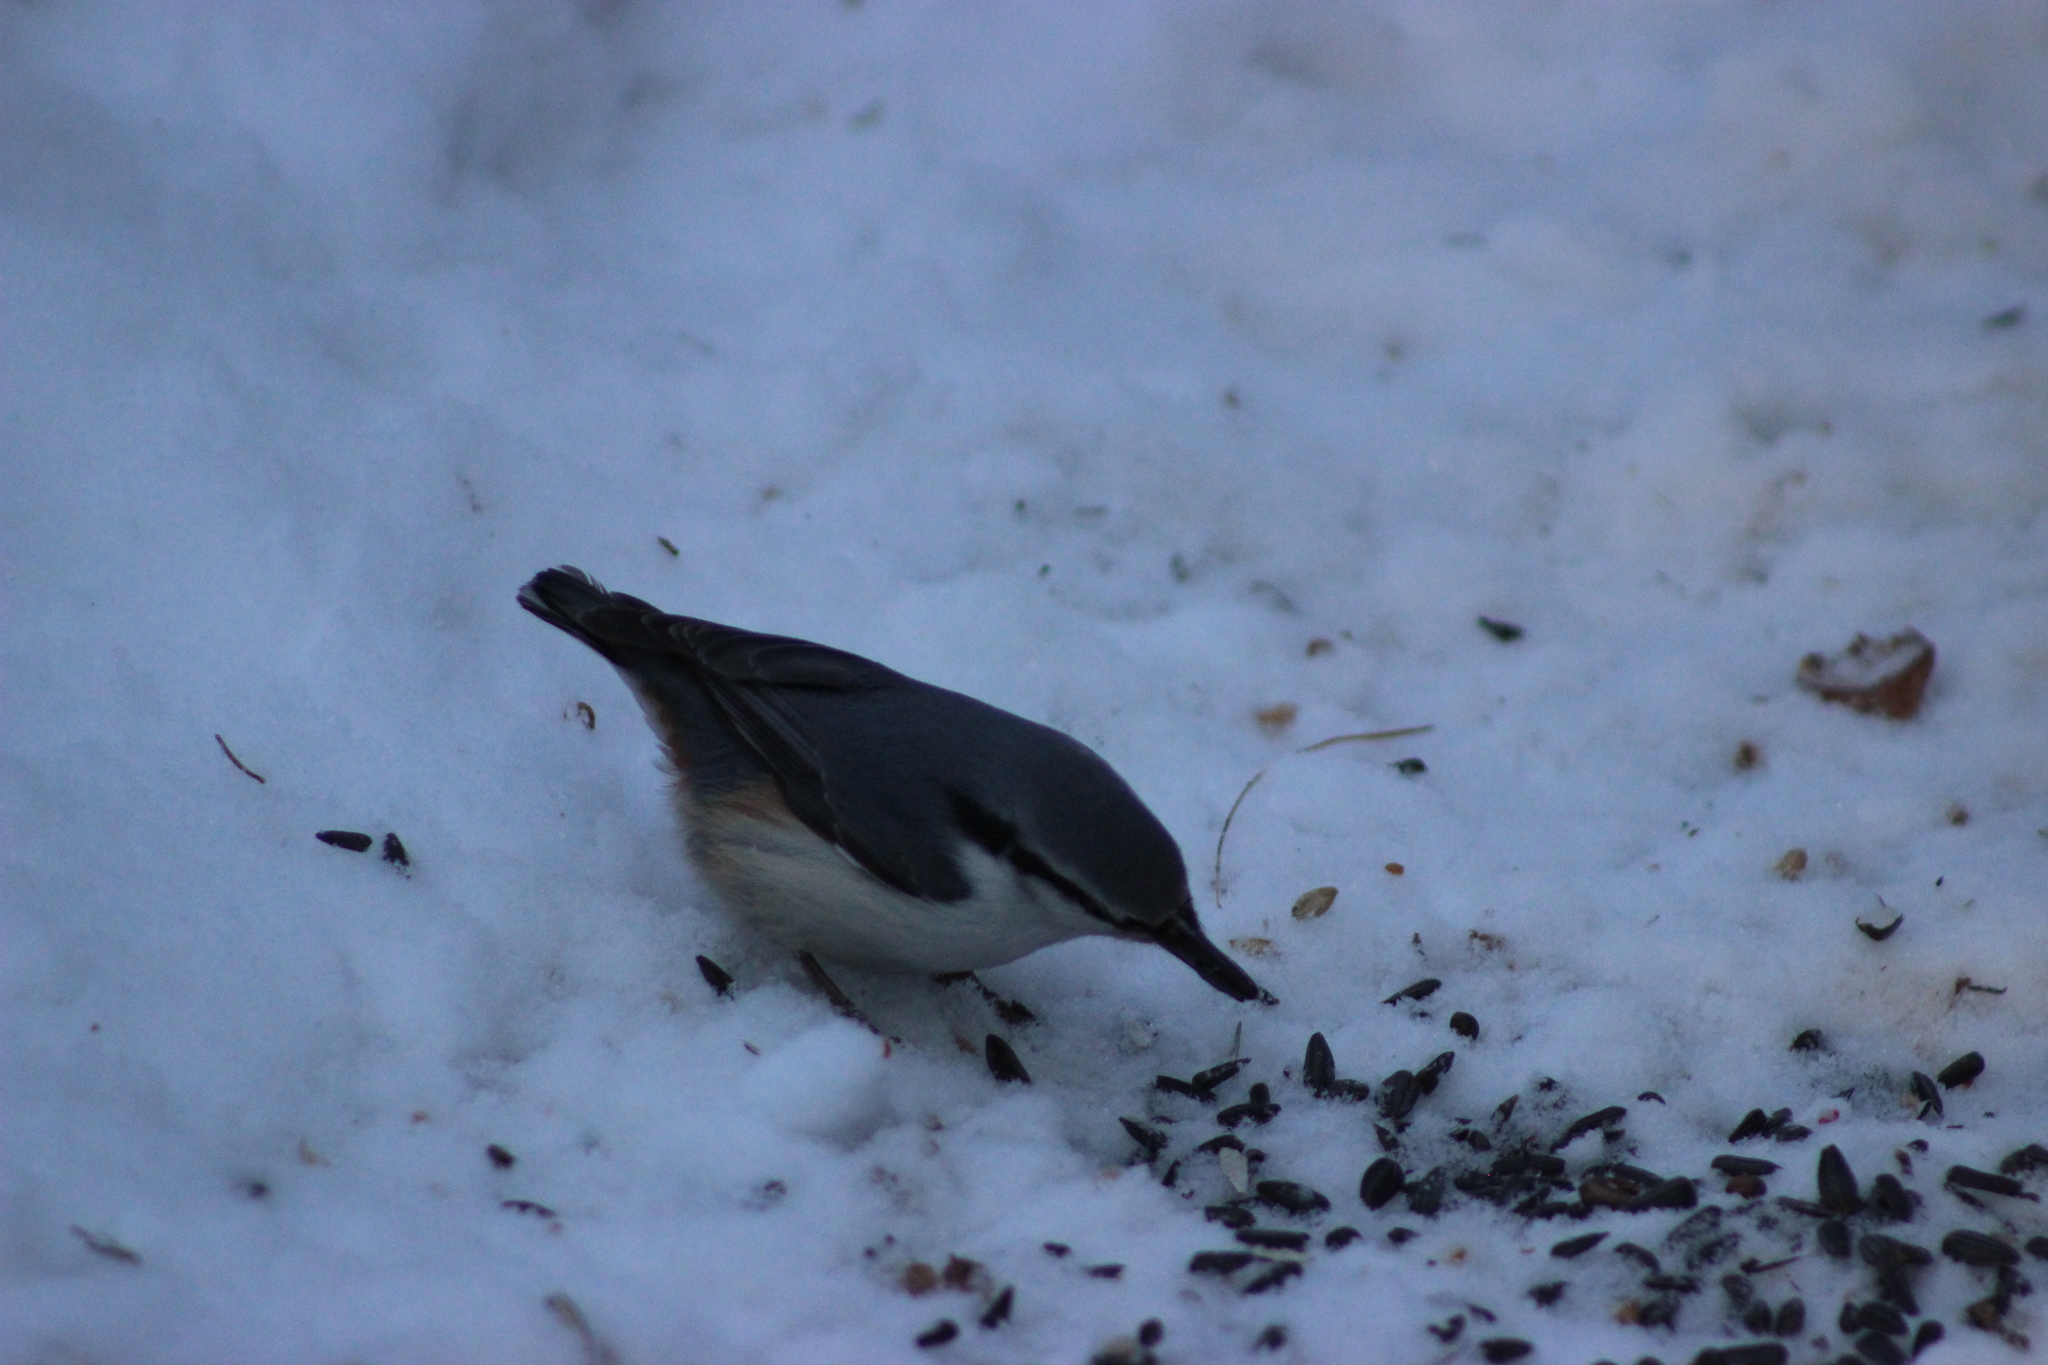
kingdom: Animalia
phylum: Chordata
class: Aves
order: Passeriformes
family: Sittidae
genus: Sitta
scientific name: Sitta europaea
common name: Eurasian nuthatch
